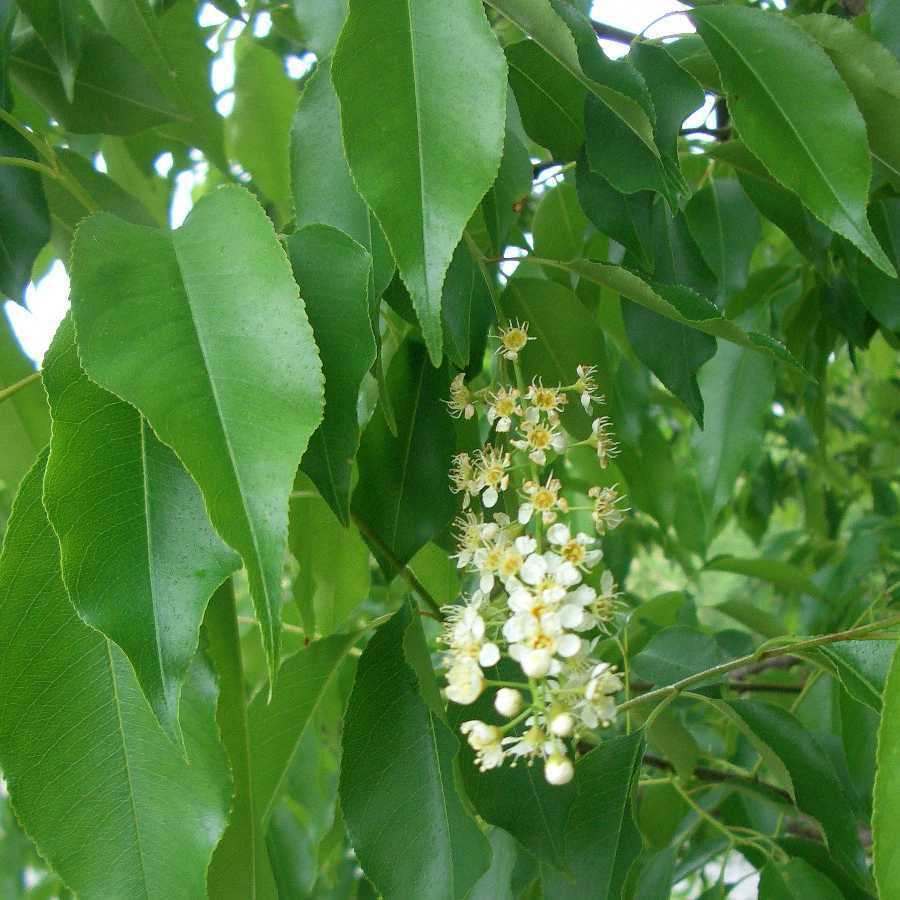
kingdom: Plantae
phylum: Tracheophyta
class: Magnoliopsida
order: Rosales
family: Rosaceae
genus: Prunus
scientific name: Prunus serotina
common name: Black cherry
